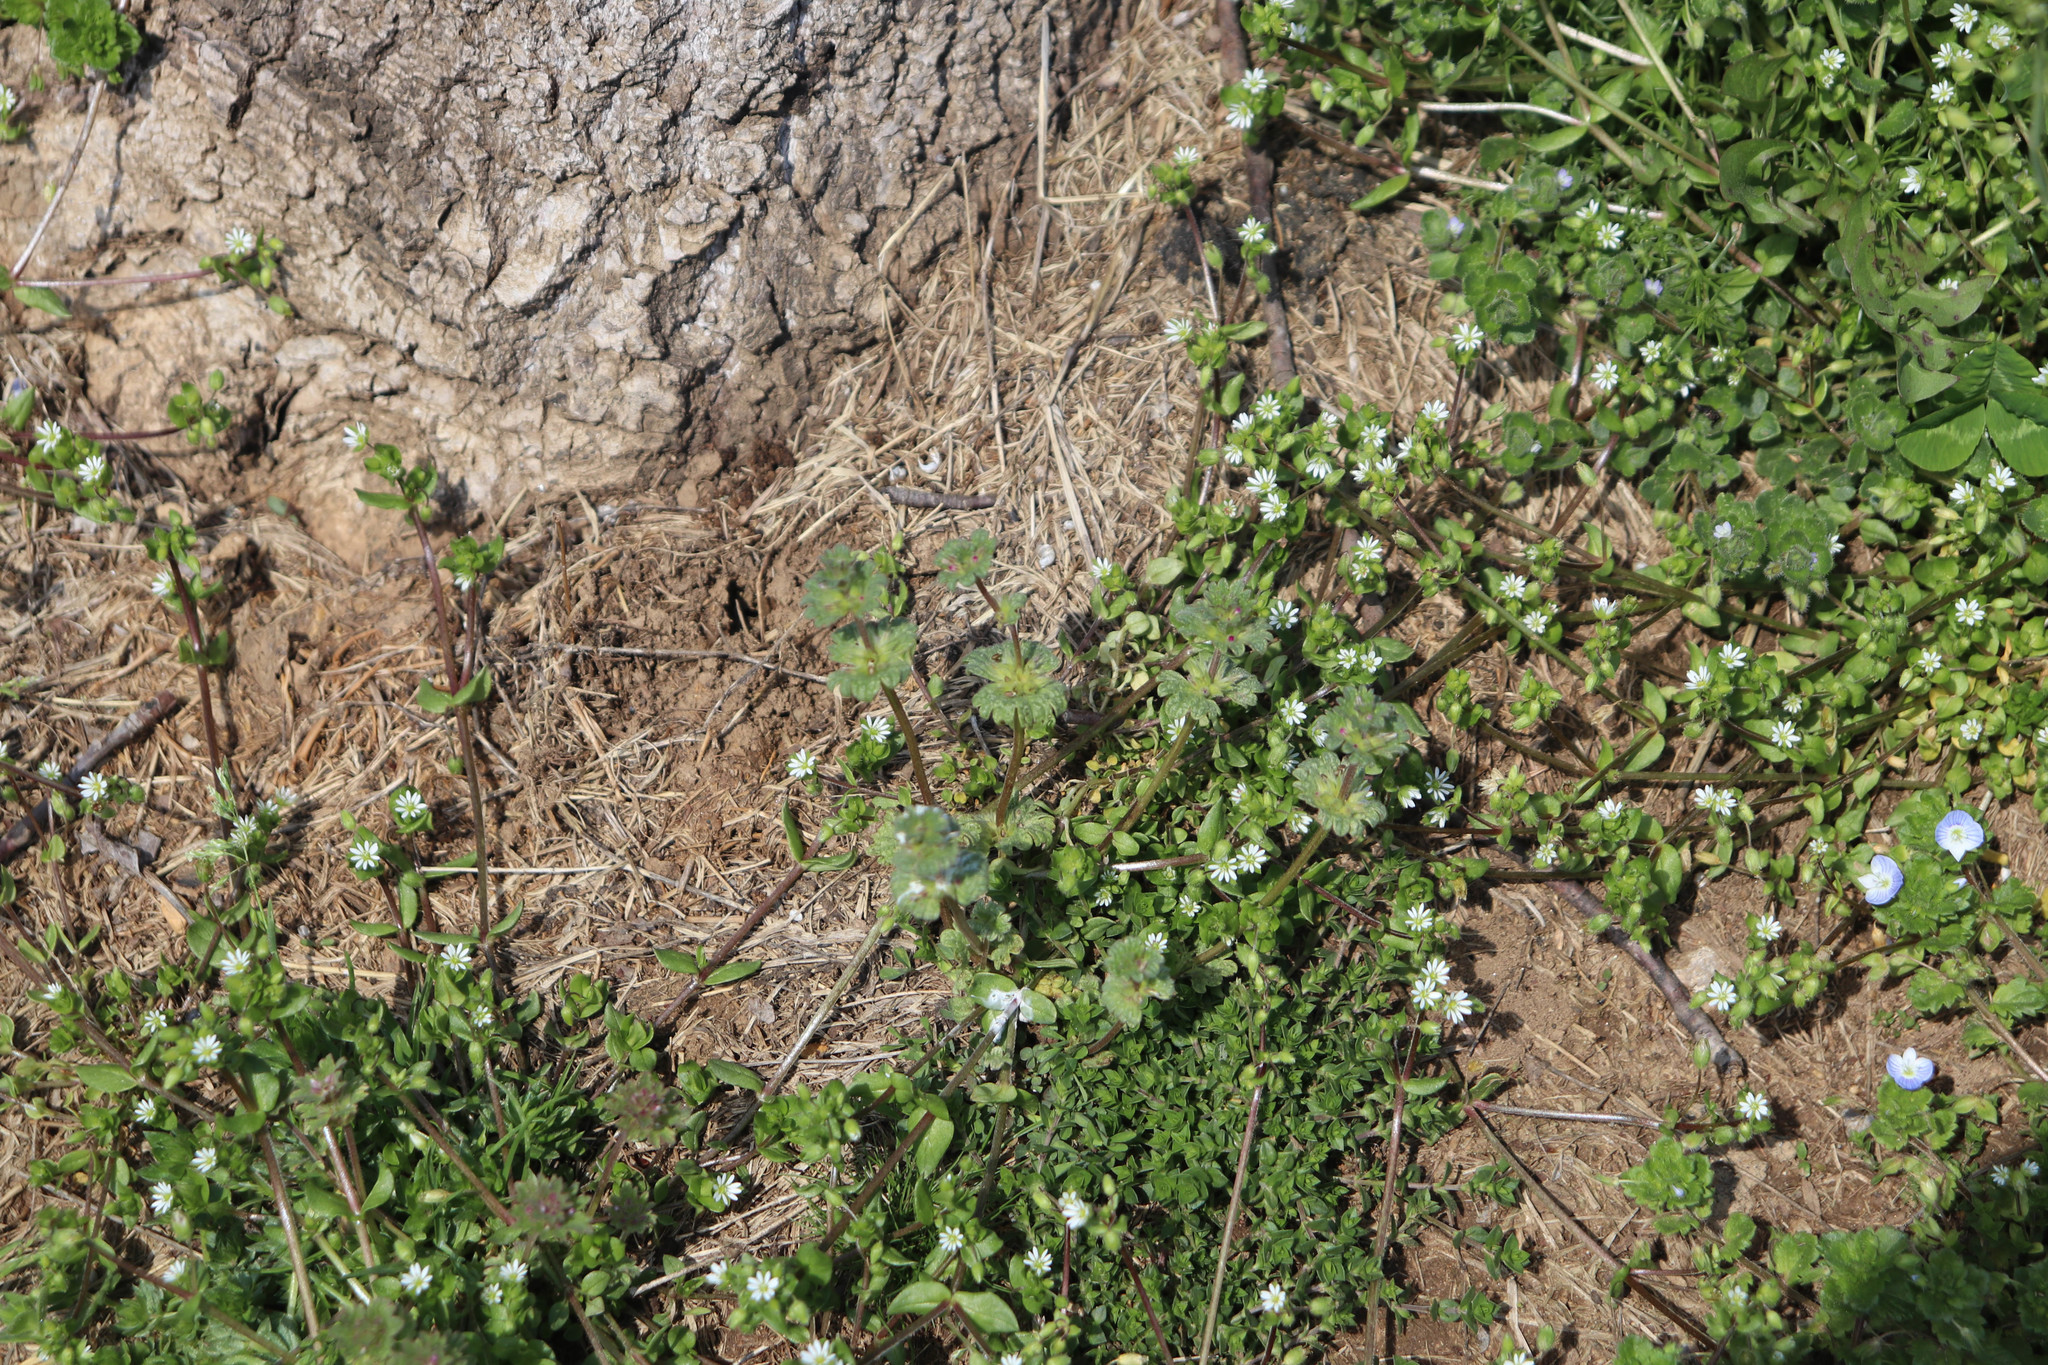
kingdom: Plantae
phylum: Tracheophyta
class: Magnoliopsida
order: Lamiales
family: Lamiaceae
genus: Lamium
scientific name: Lamium amplexicaule
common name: Henbit dead-nettle
